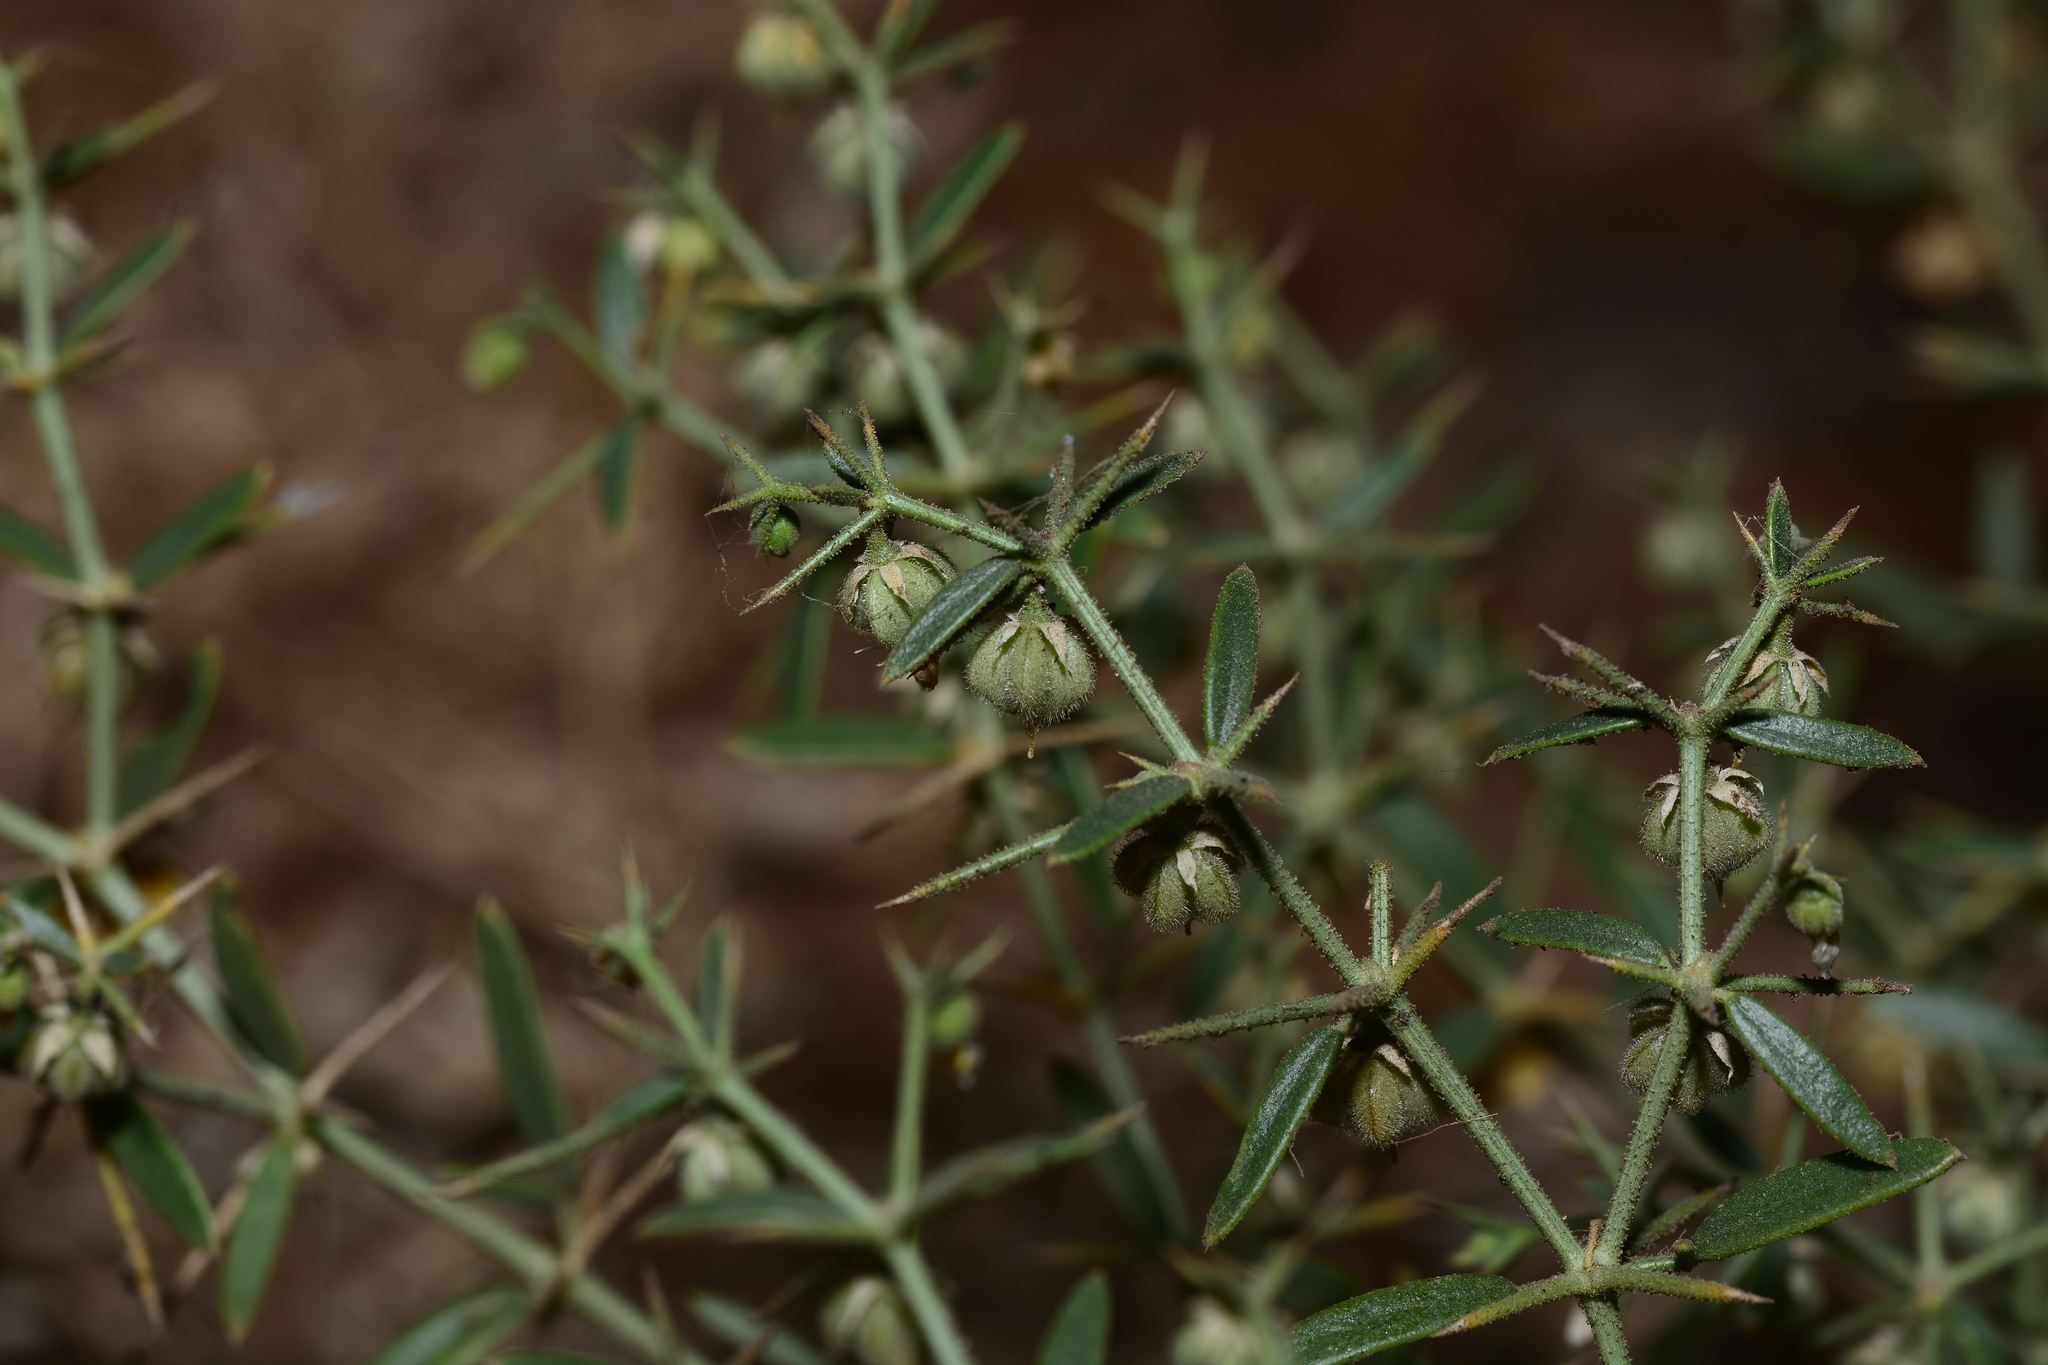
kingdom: Plantae
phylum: Tracheophyta
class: Magnoliopsida
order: Zygophyllales
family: Zygophyllaceae
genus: Fagonia
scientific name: Fagonia paulayana
